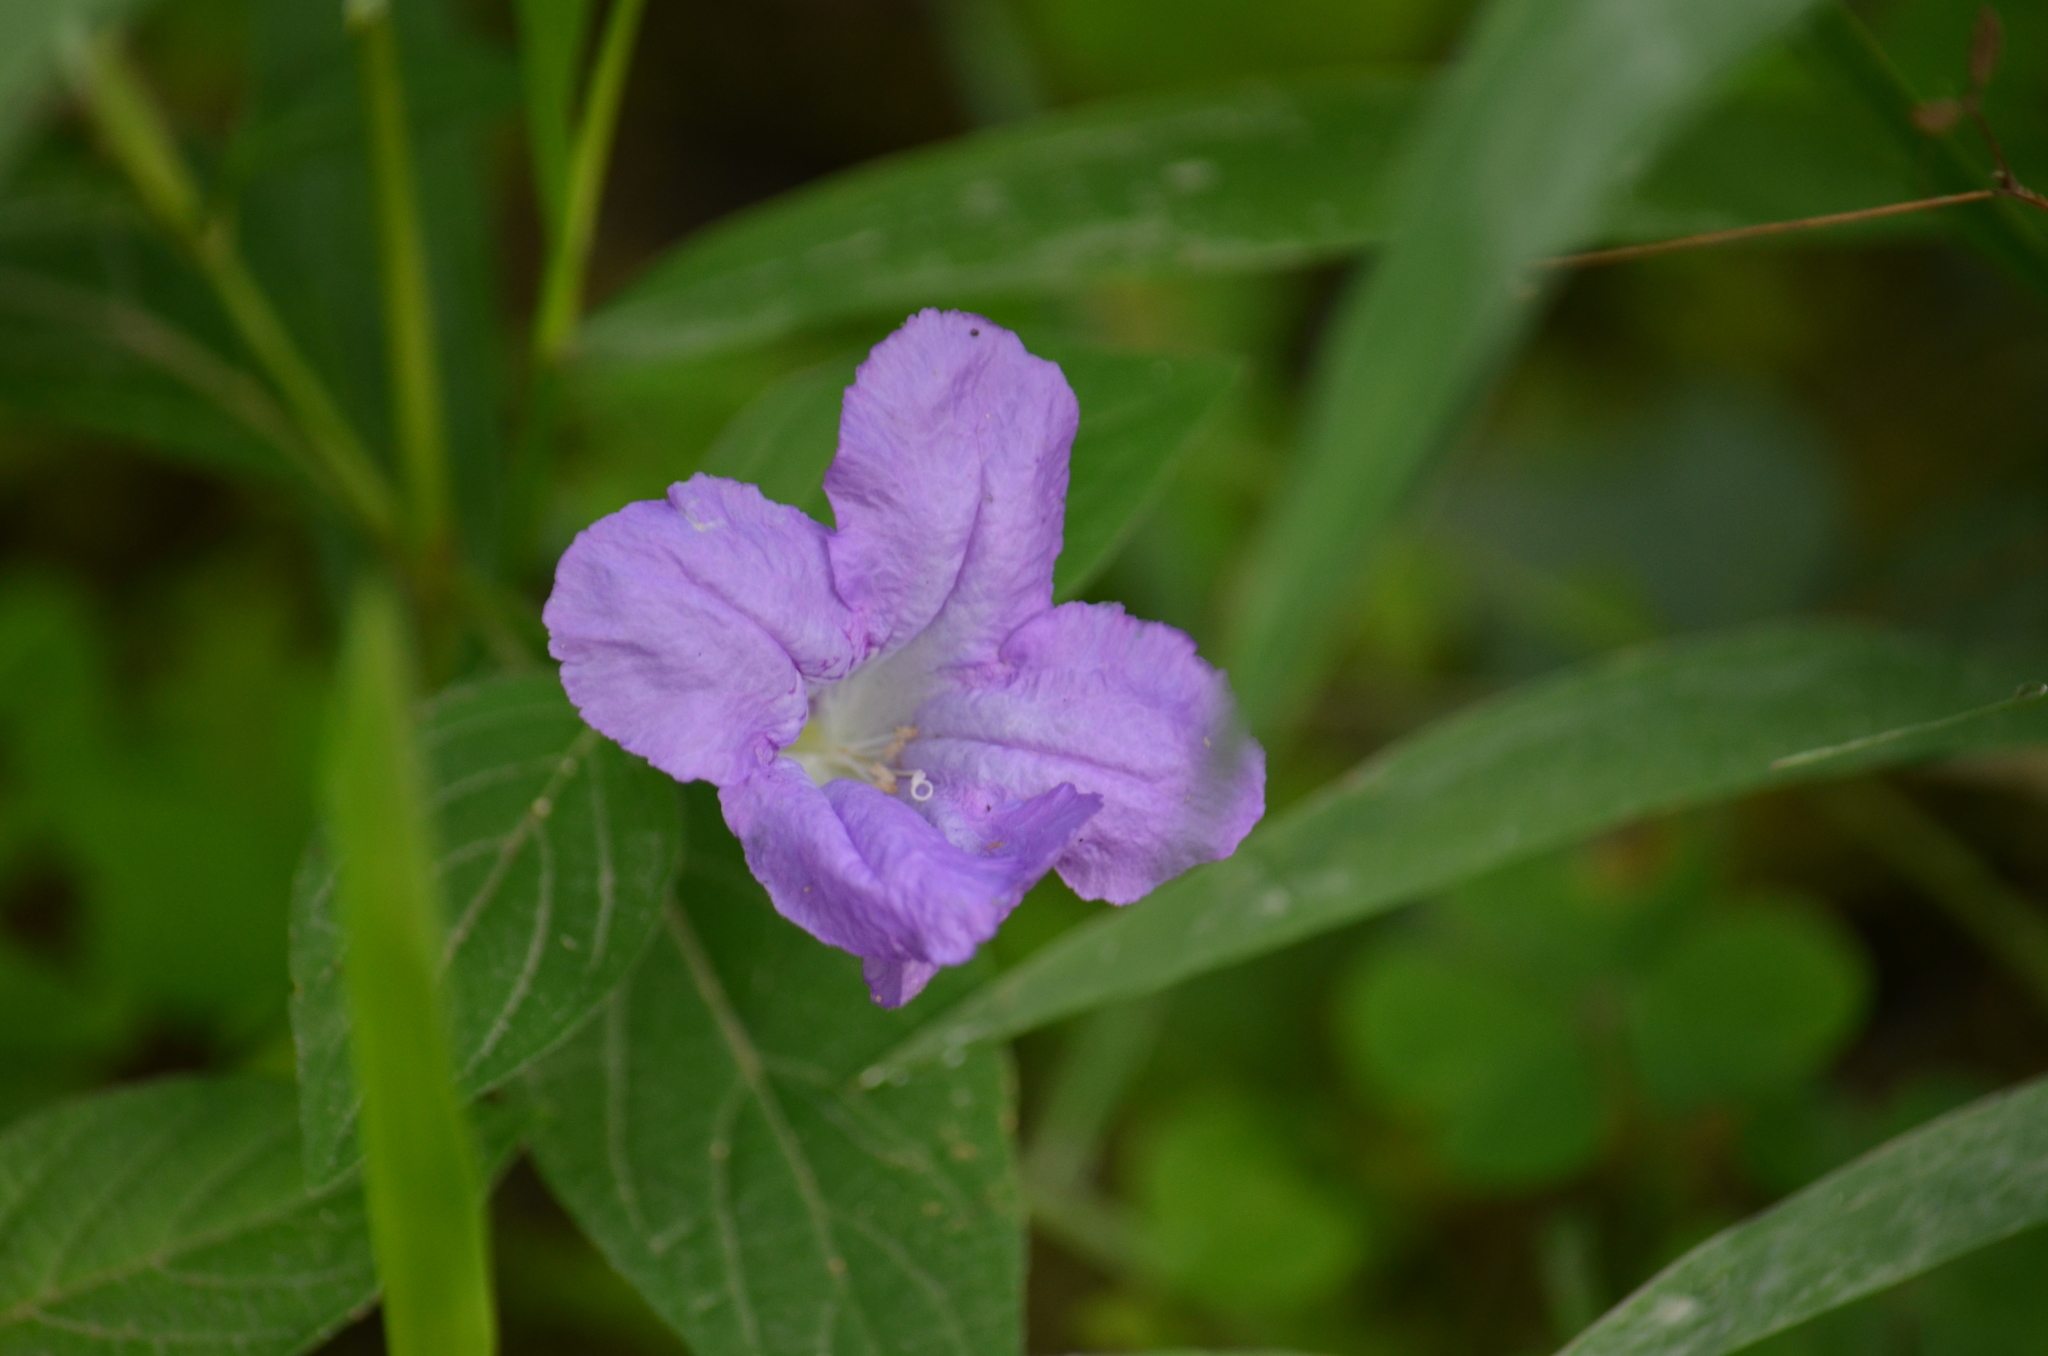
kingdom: Plantae
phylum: Tracheophyta
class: Magnoliopsida
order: Lamiales
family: Acanthaceae
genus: Ruellia
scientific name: Ruellia strepens
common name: Limestone wild petunia
